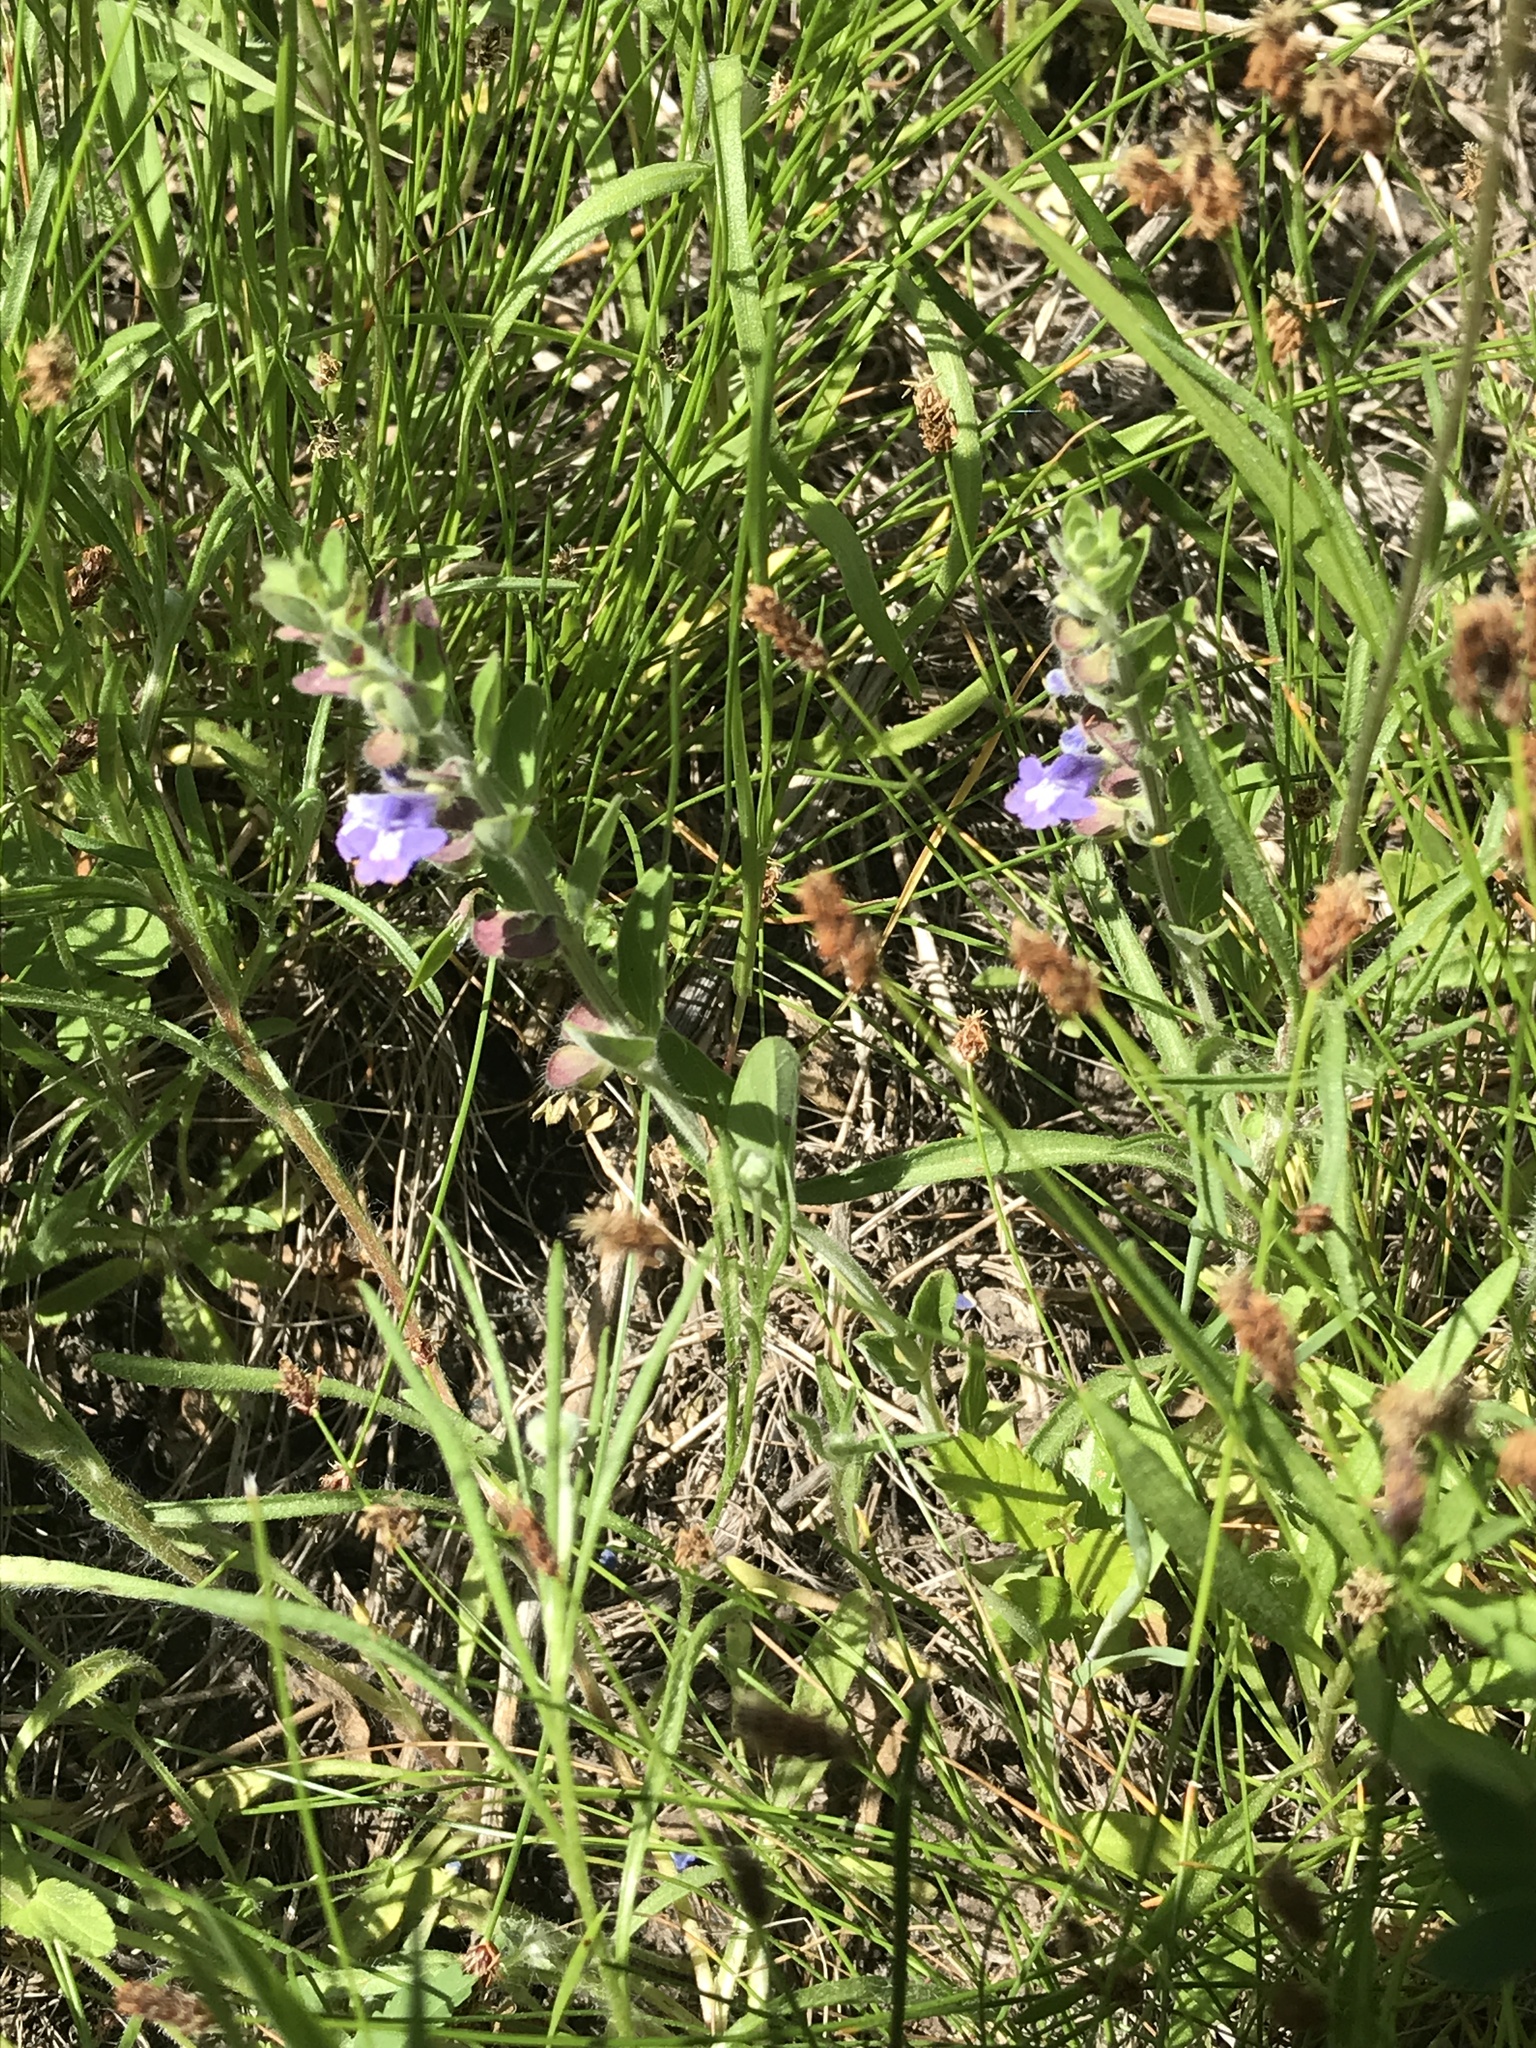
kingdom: Plantae
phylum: Tracheophyta
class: Magnoliopsida
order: Lamiales
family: Lamiaceae
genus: Scutellaria
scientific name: Scutellaria drummondii
